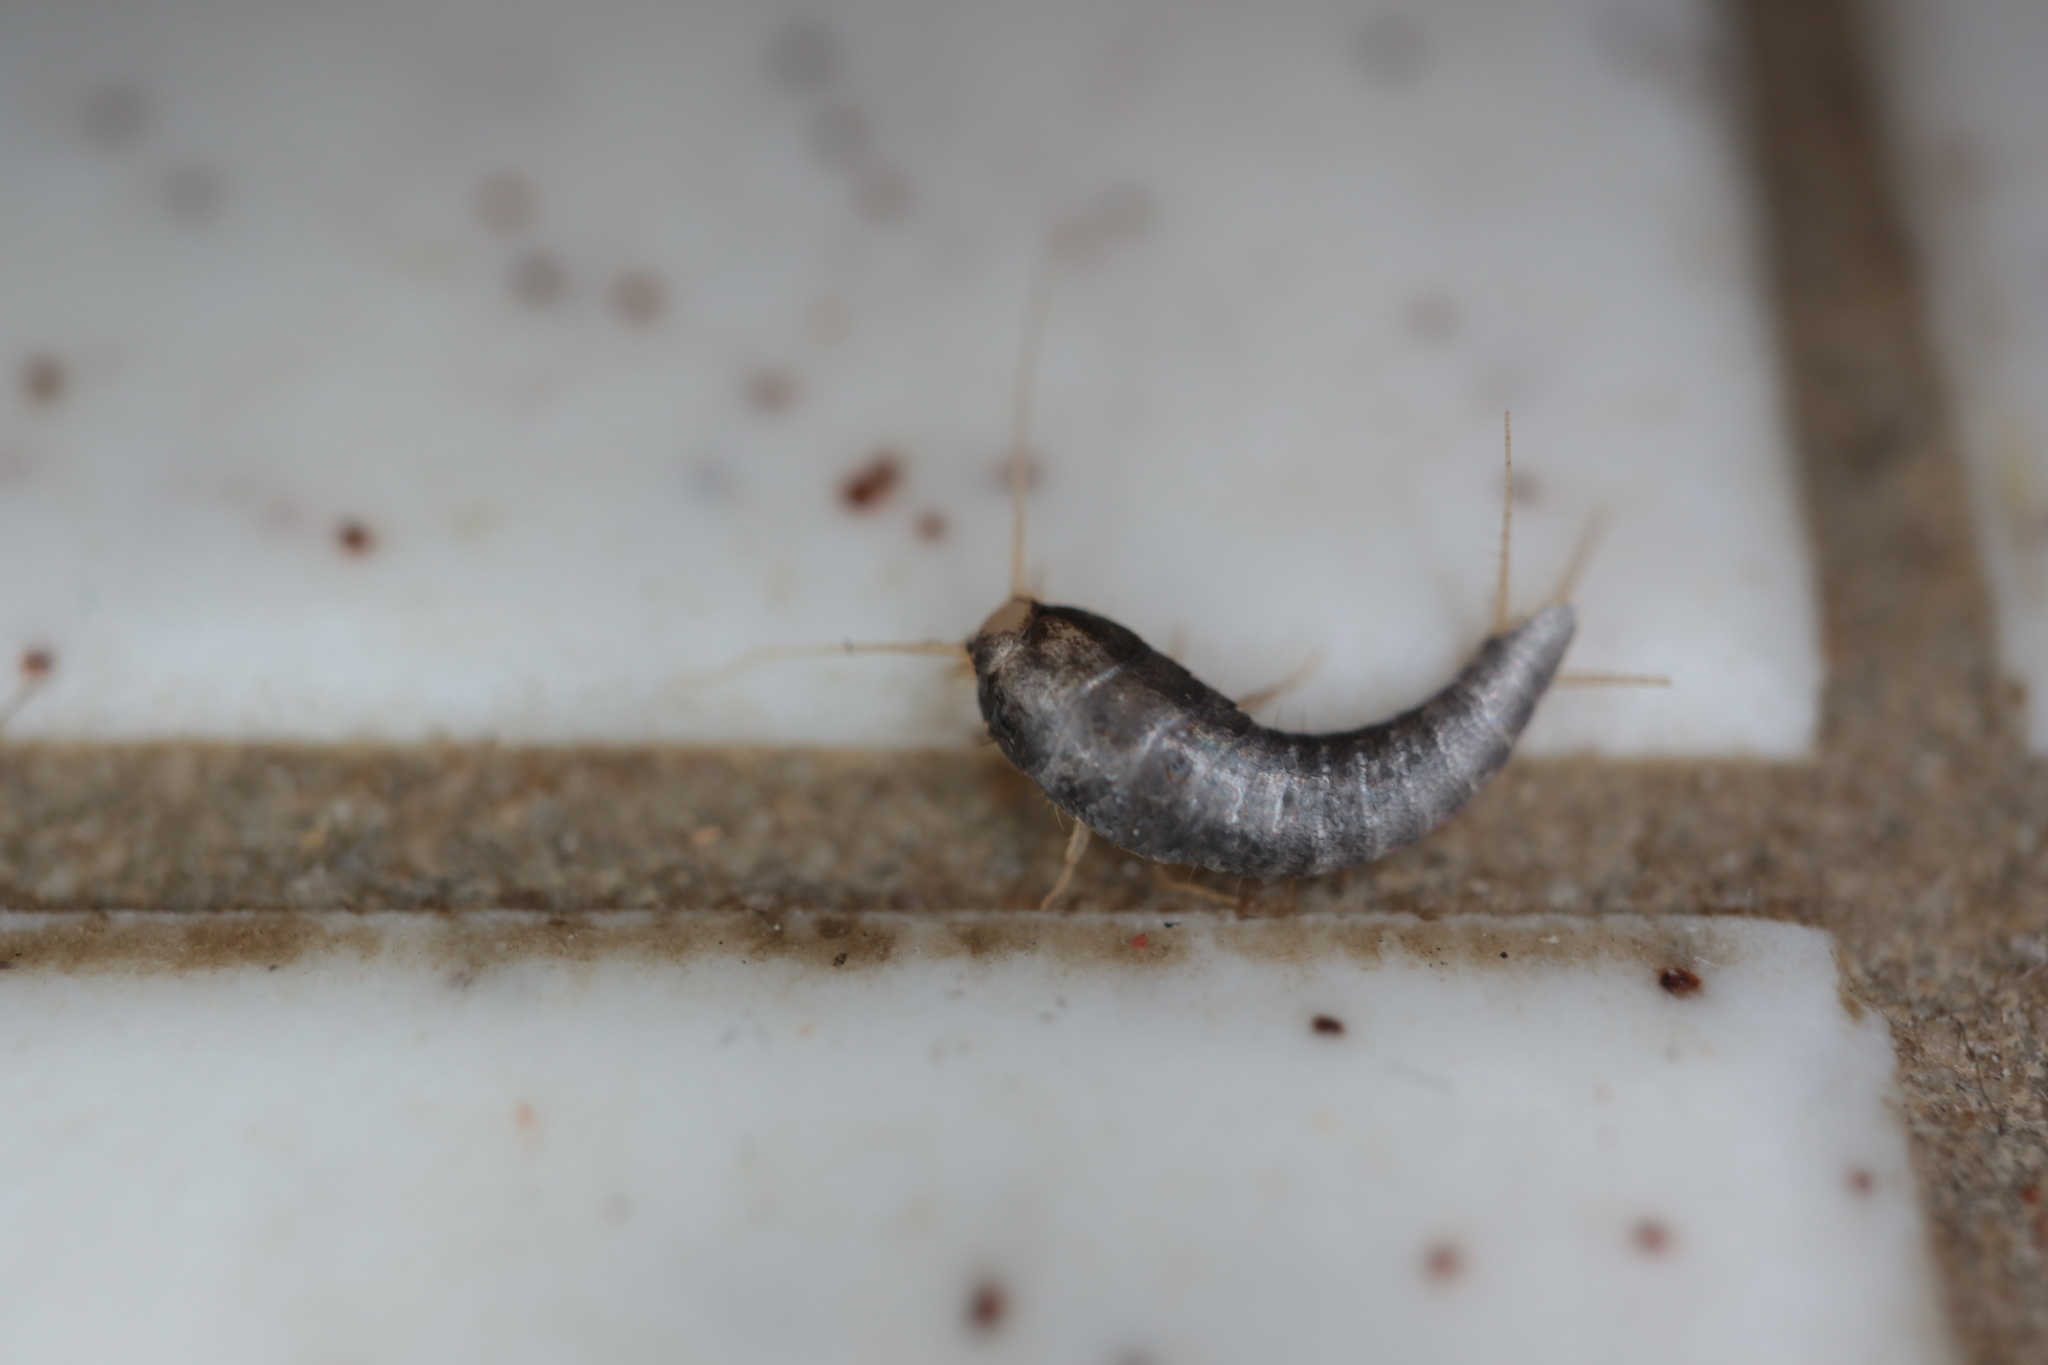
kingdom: Animalia
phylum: Arthropoda
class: Insecta
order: Zygentoma
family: Lepismatidae
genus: Lepisma
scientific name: Lepisma saccharinum
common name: Silverfish
